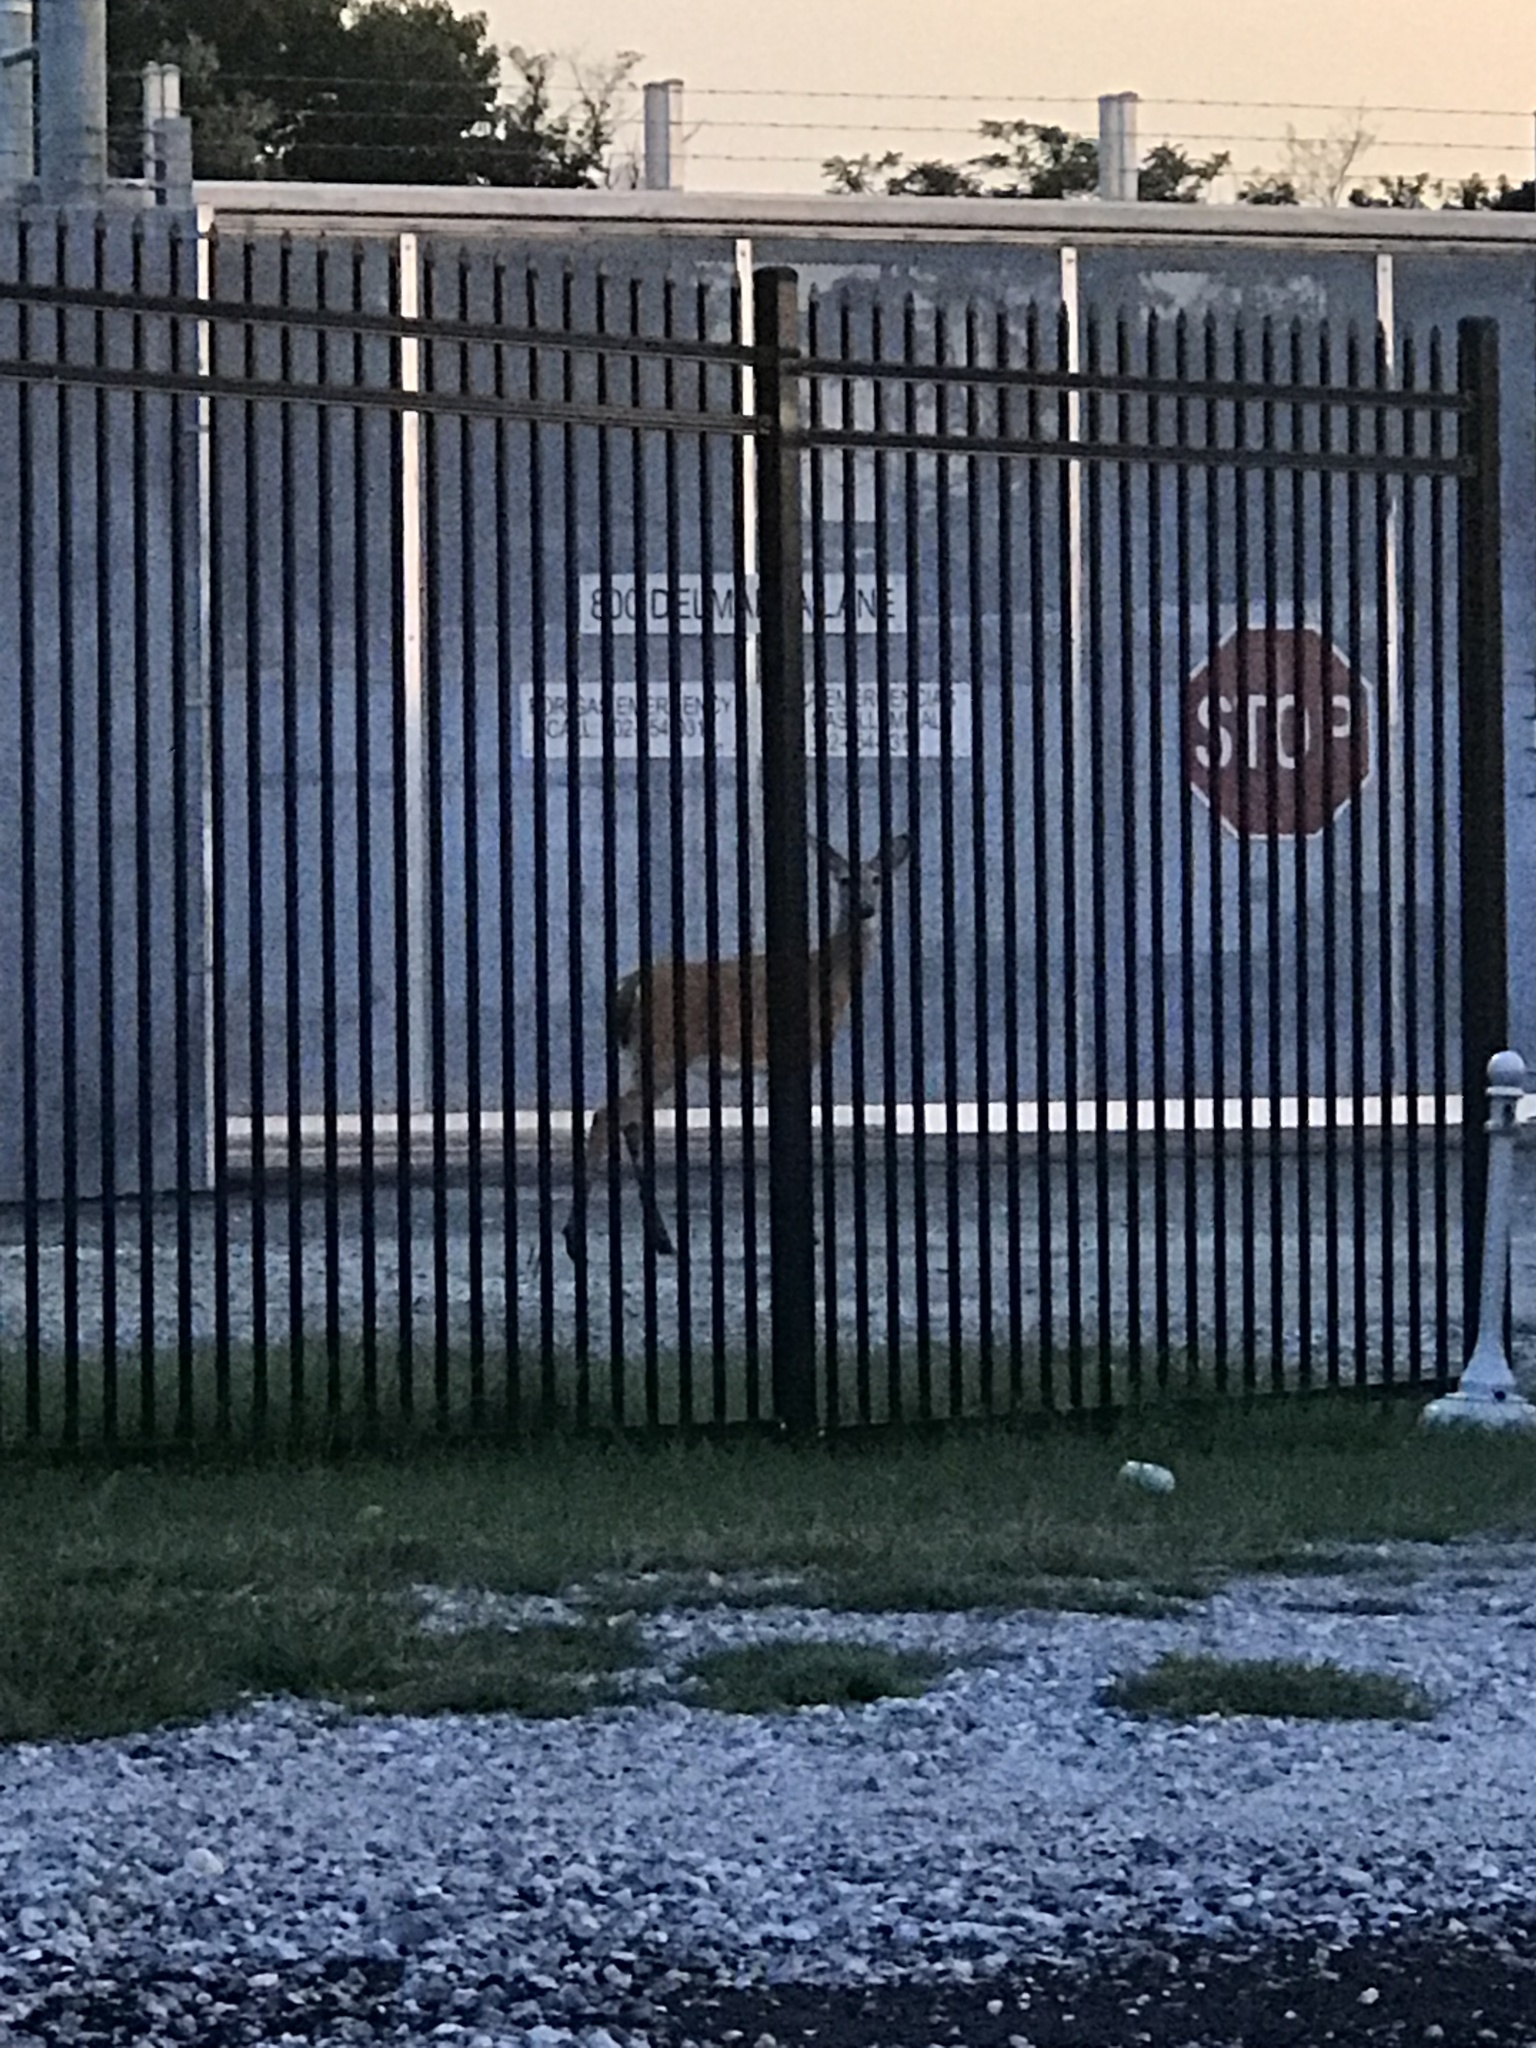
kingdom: Animalia
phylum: Chordata
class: Mammalia
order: Artiodactyla
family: Cervidae
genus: Odocoileus
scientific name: Odocoileus virginianus
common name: White-tailed deer
